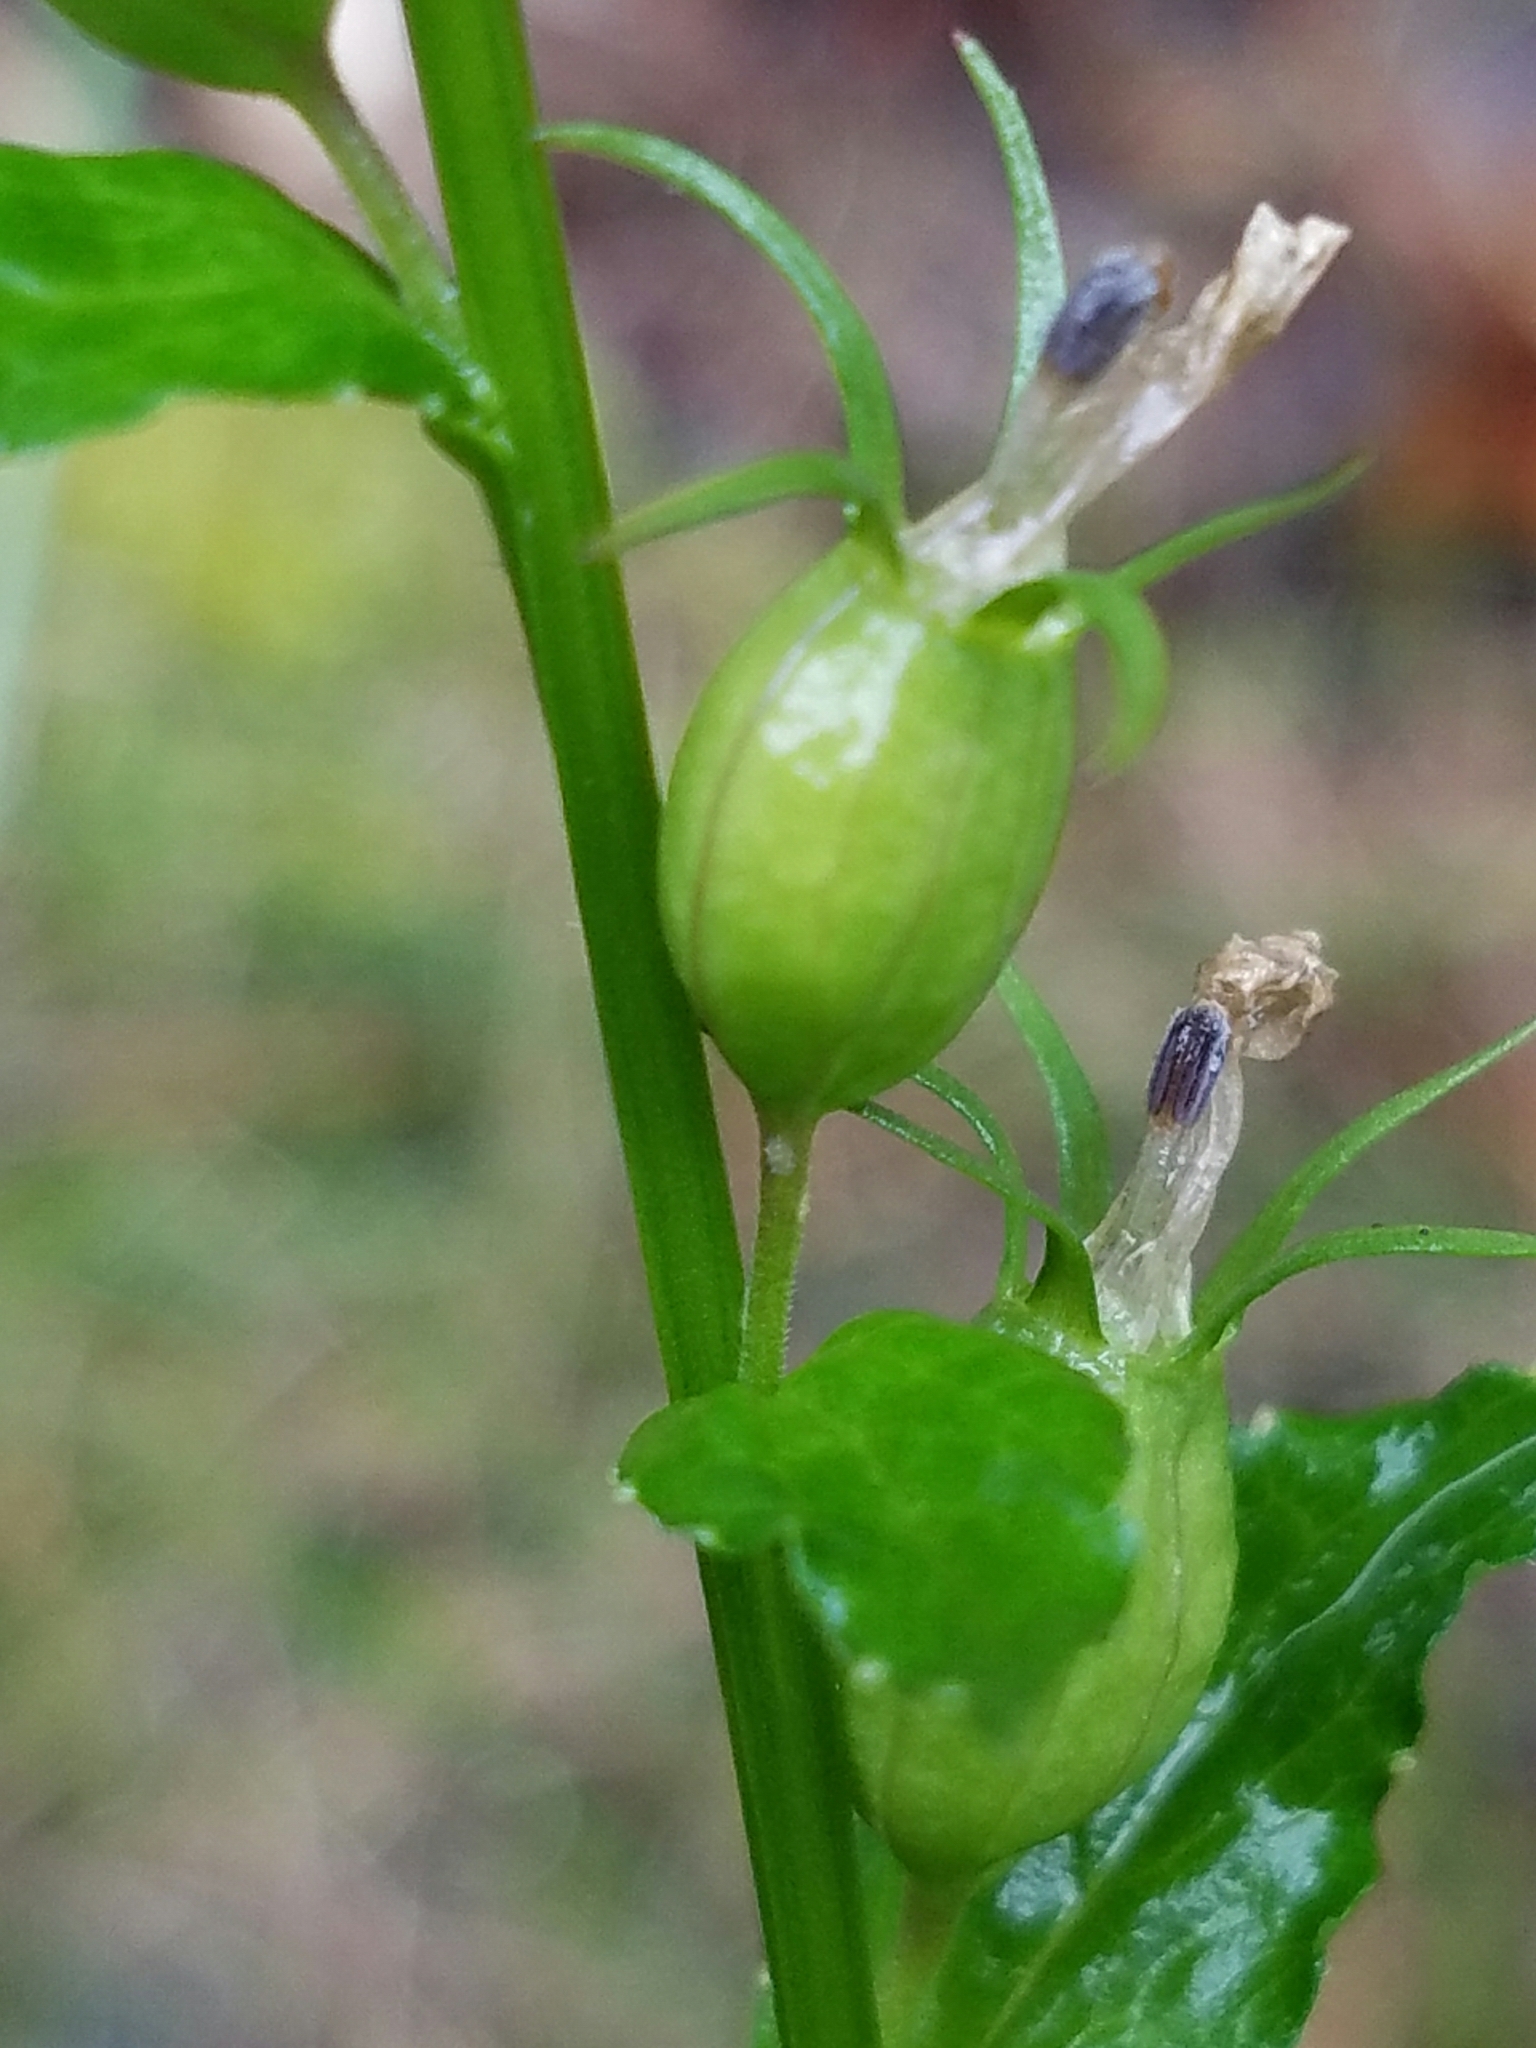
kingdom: Plantae
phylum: Tracheophyta
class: Magnoliopsida
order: Asterales
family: Campanulaceae
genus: Lobelia
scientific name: Lobelia inflata
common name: Indian tobacco
